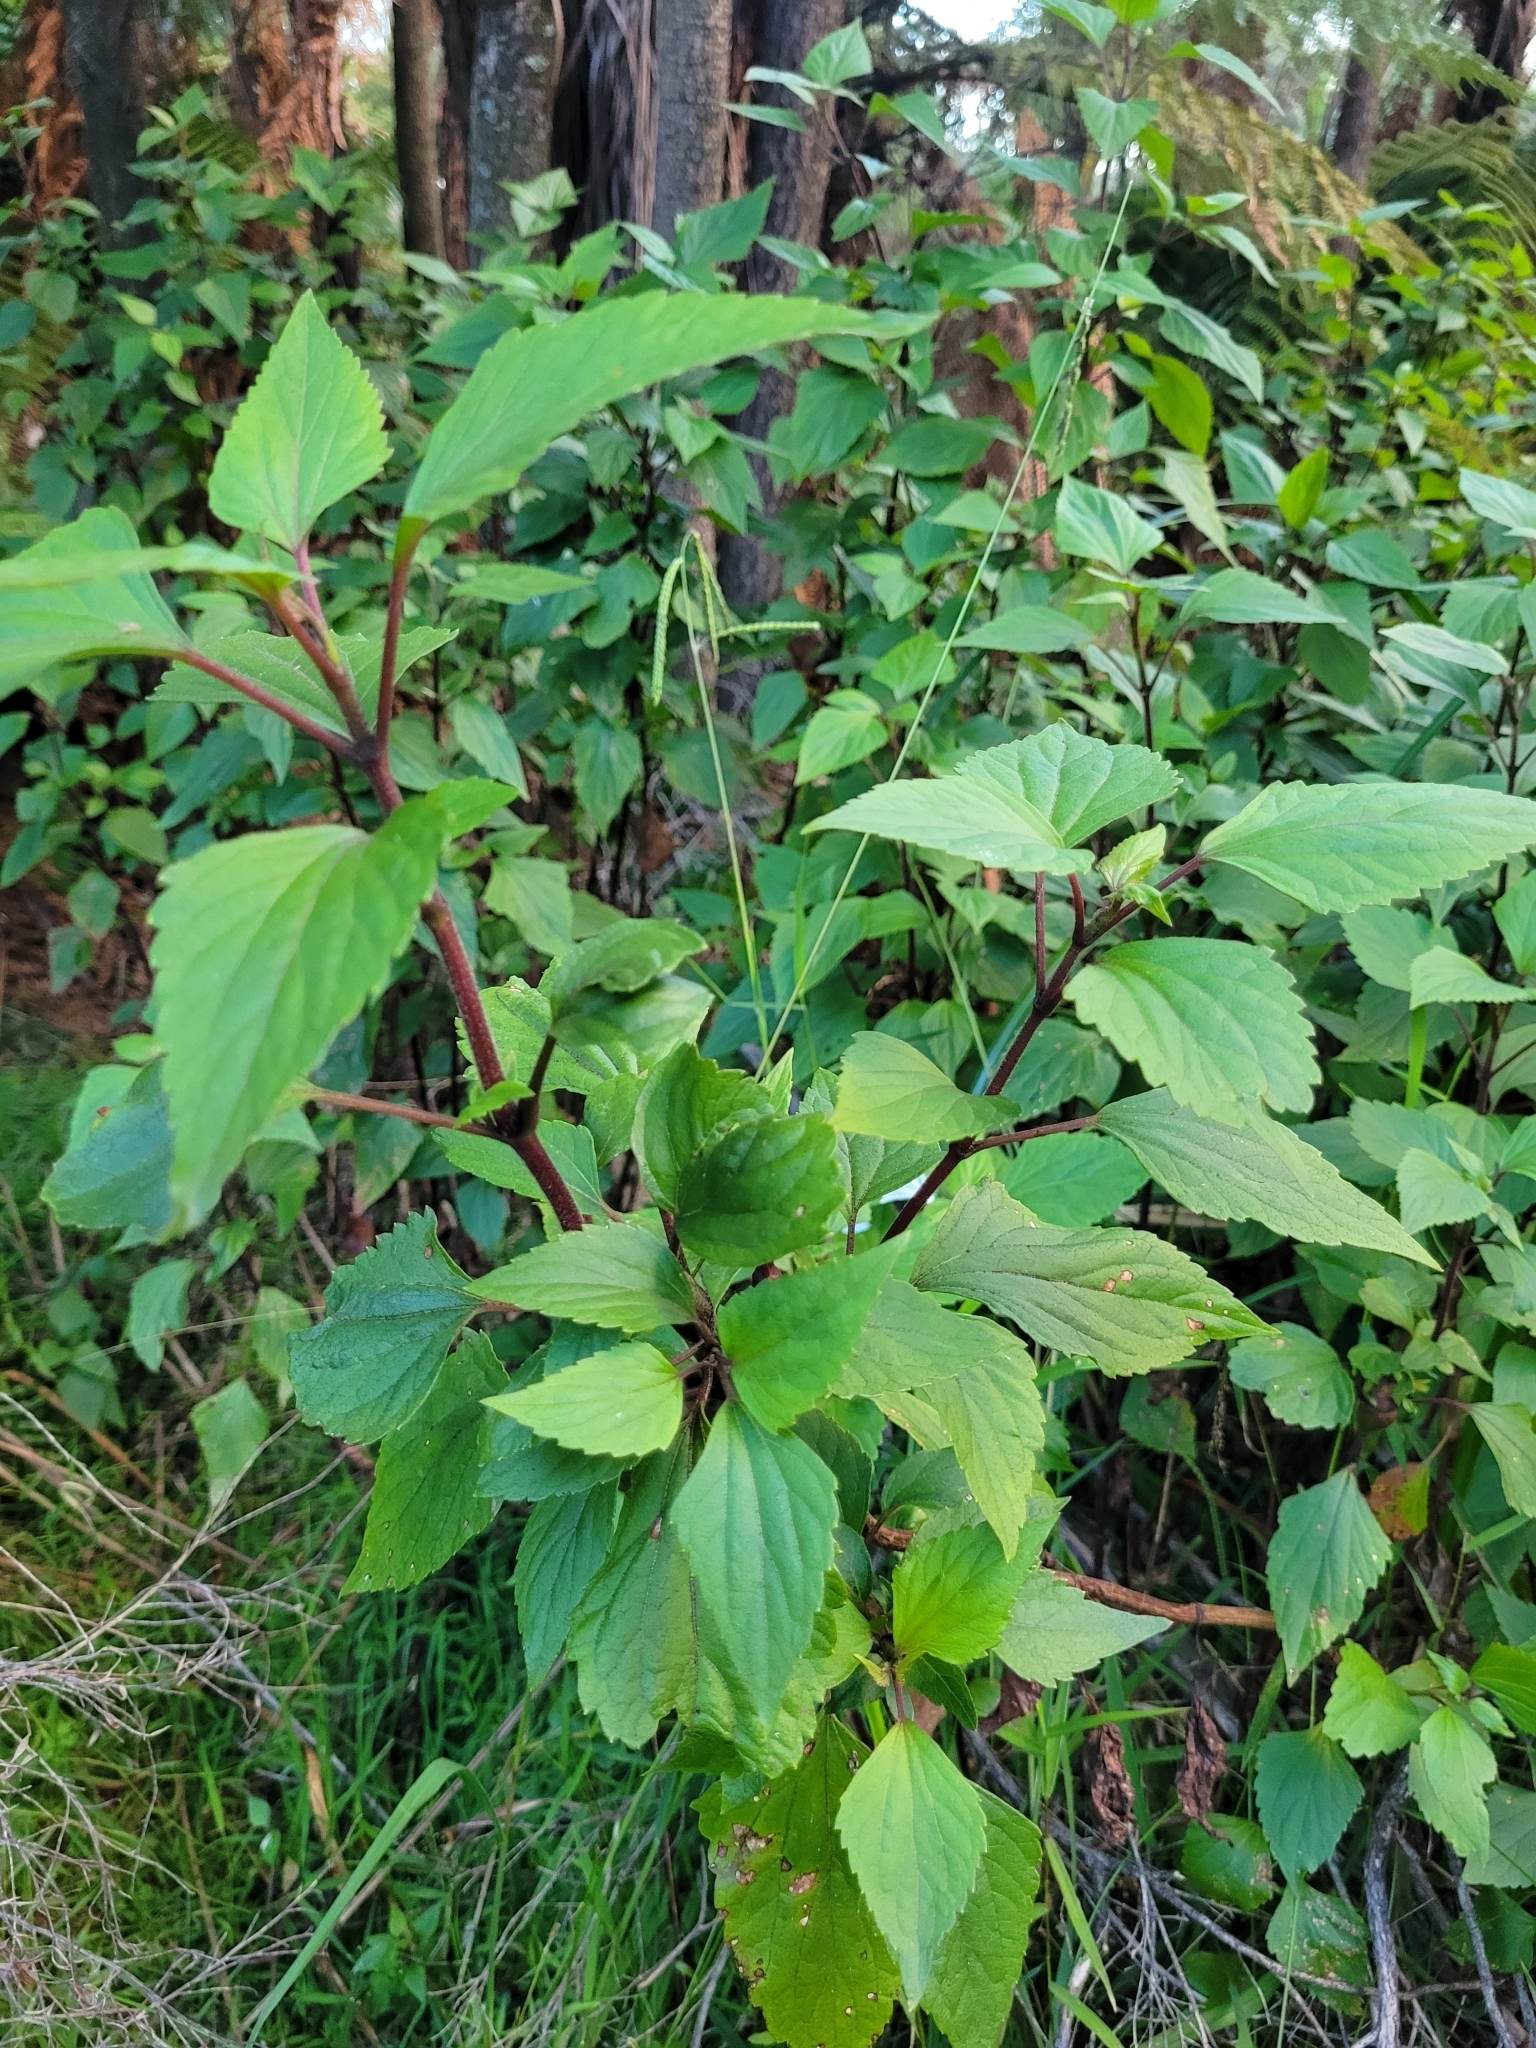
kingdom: Plantae
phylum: Tracheophyta
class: Magnoliopsida
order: Lamiales
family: Lamiaceae
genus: Plectranthus
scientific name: Plectranthus ecklonii
